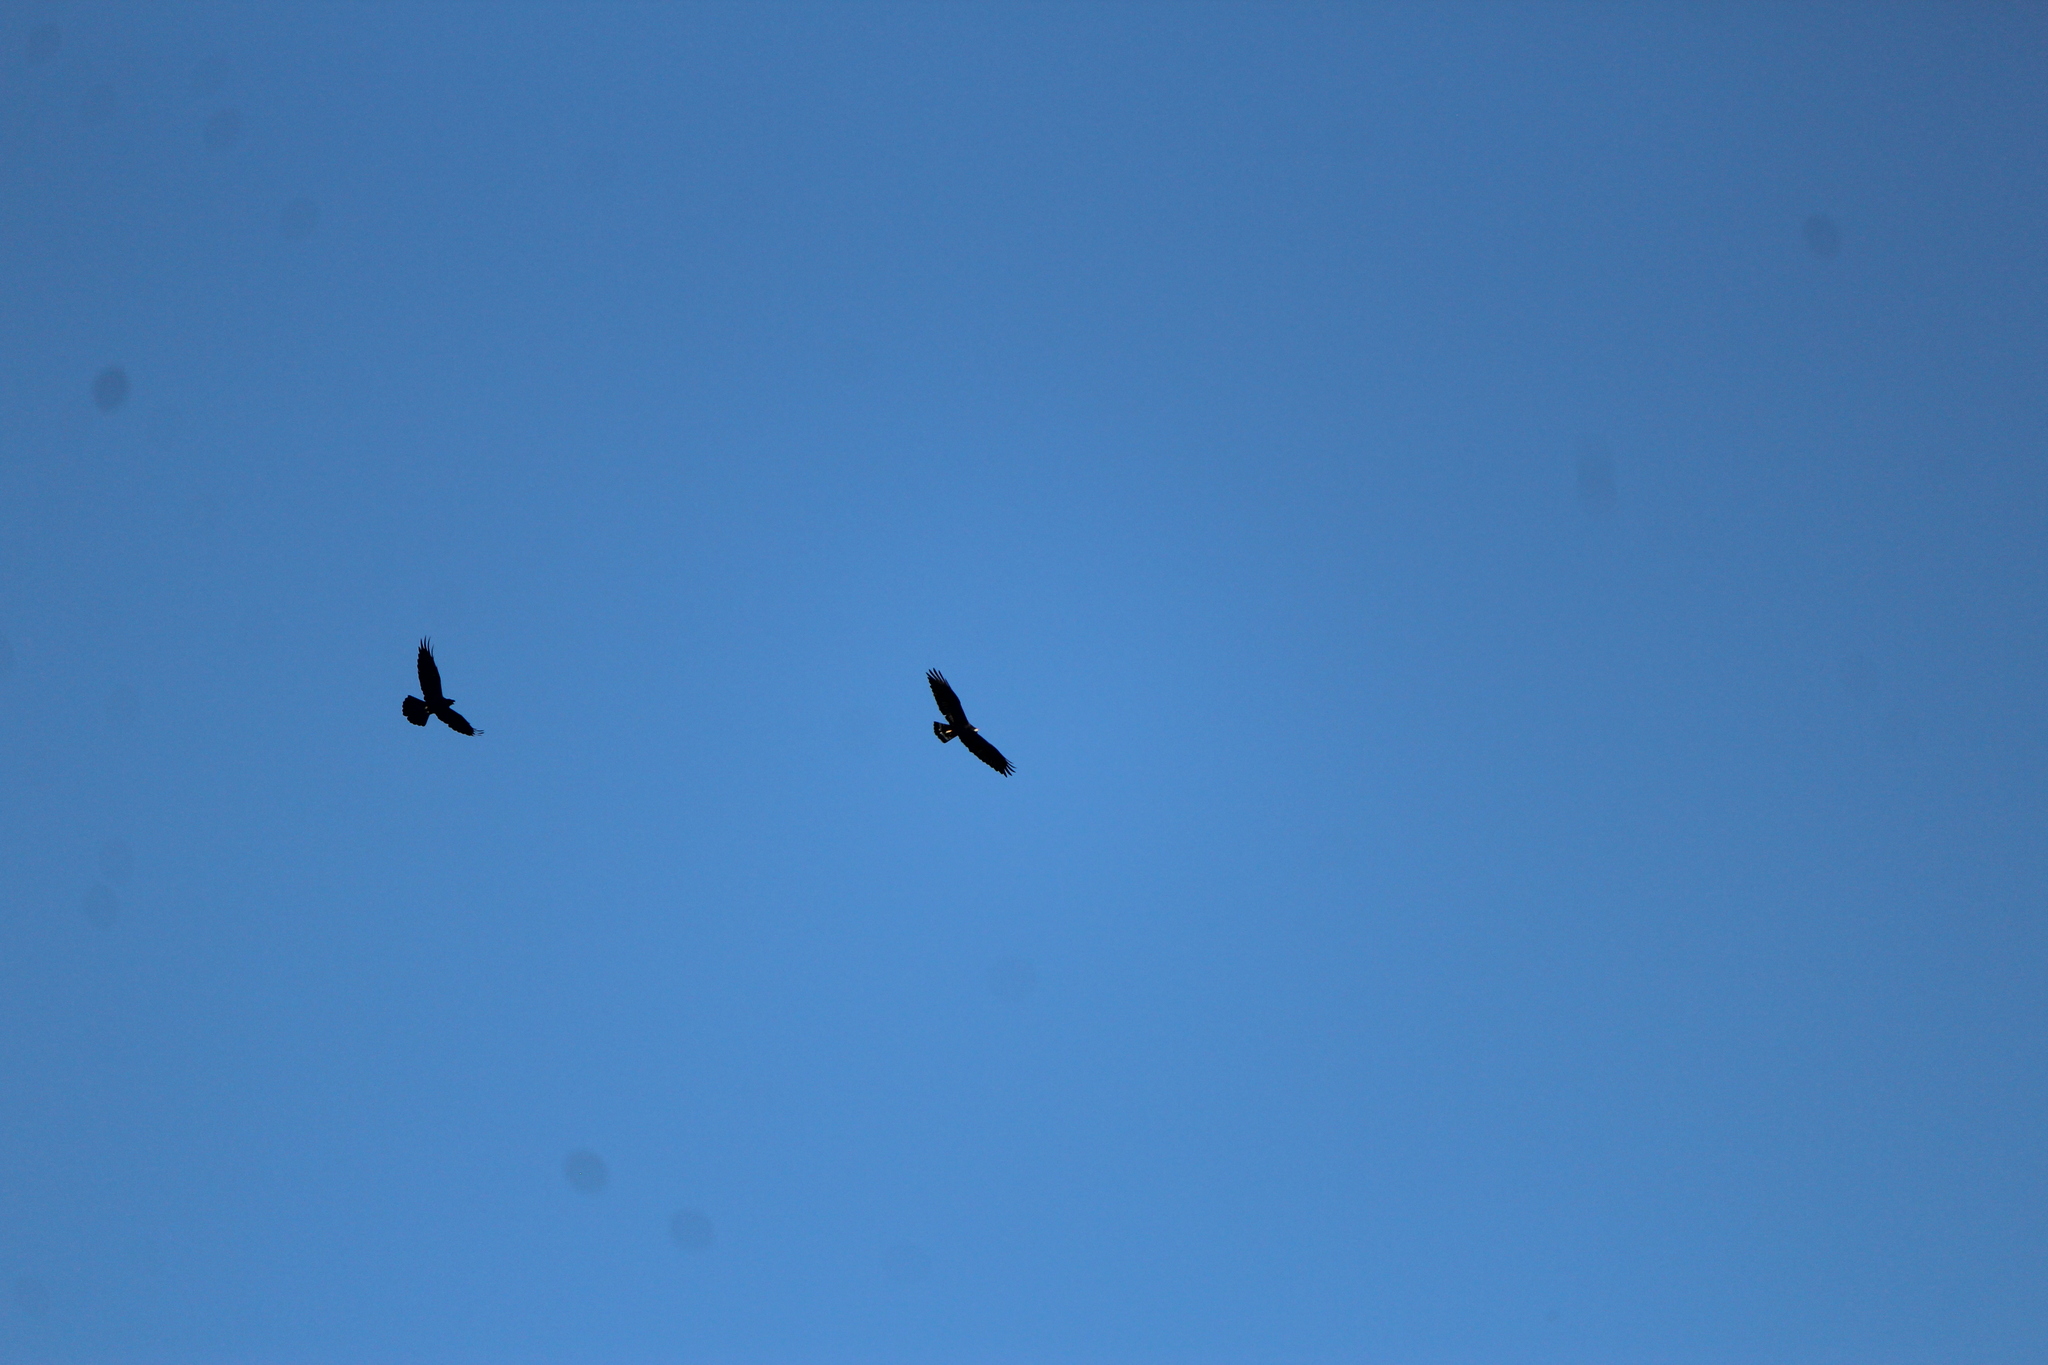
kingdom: Animalia
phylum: Chordata
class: Aves
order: Accipitriformes
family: Accipitridae
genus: Buteo
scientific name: Buteo albonotatus
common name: Zone-tailed hawk
